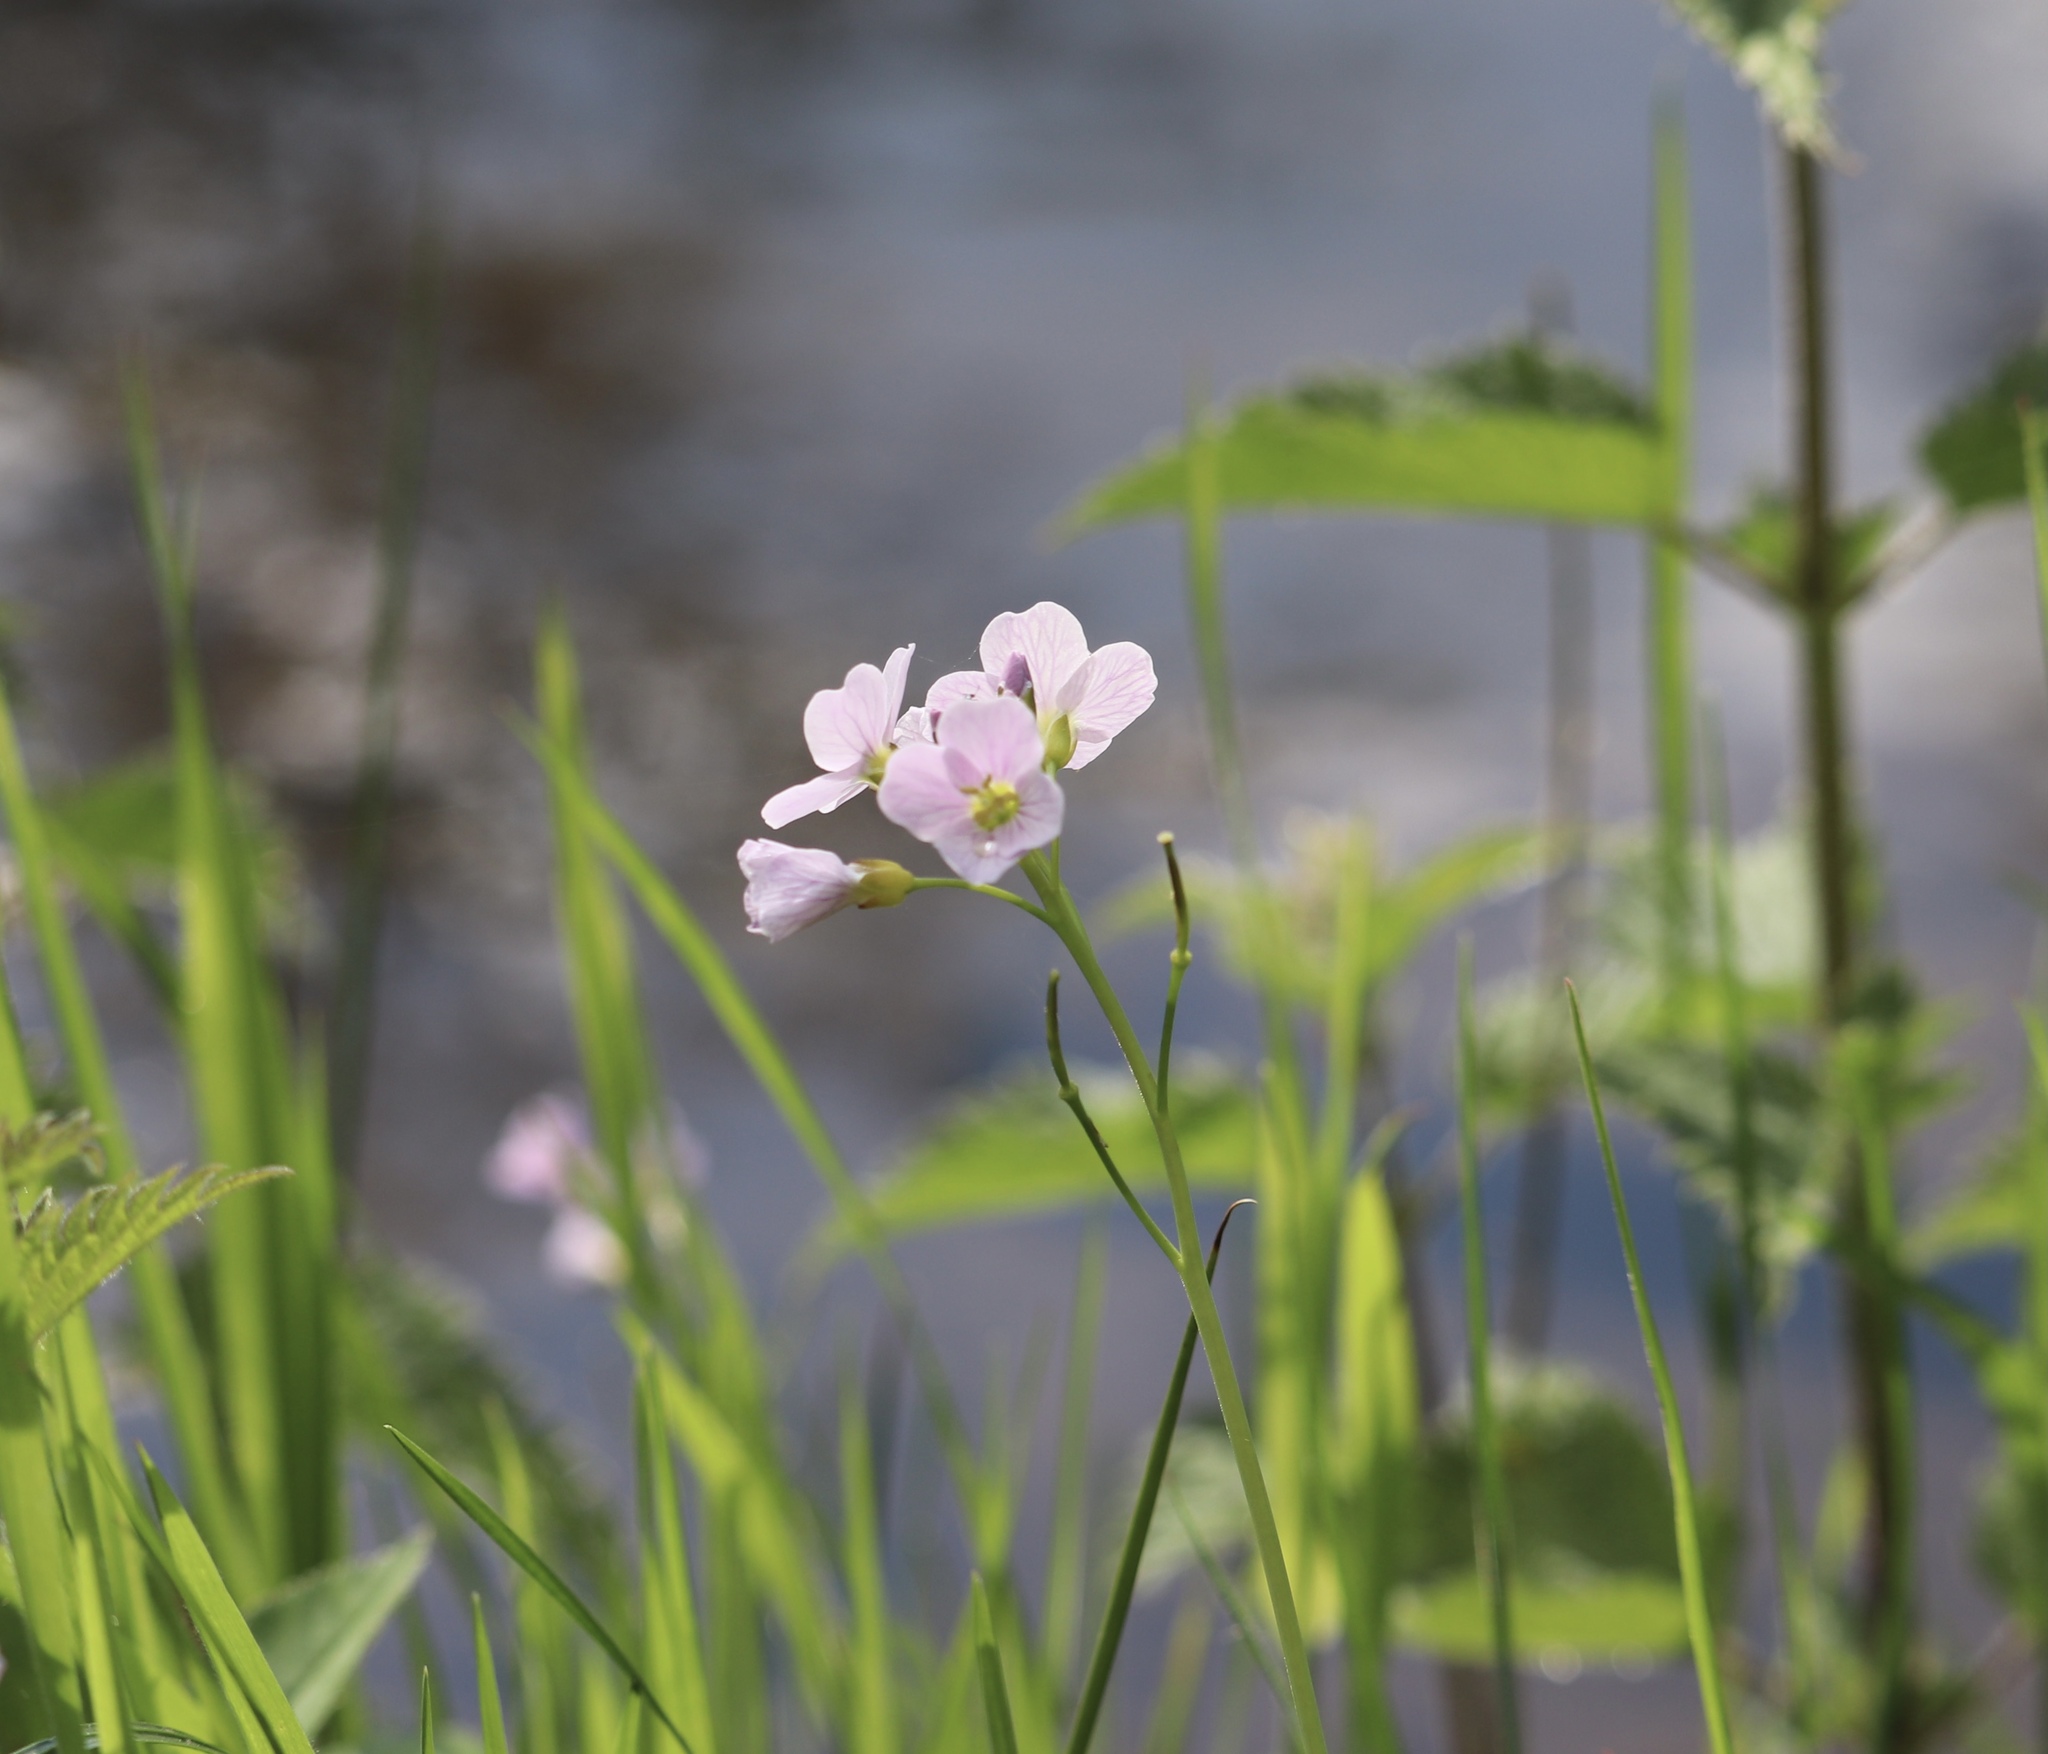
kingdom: Plantae
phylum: Tracheophyta
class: Magnoliopsida
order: Brassicales
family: Brassicaceae
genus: Cardamine
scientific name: Cardamine pratensis
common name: Cuckoo flower
